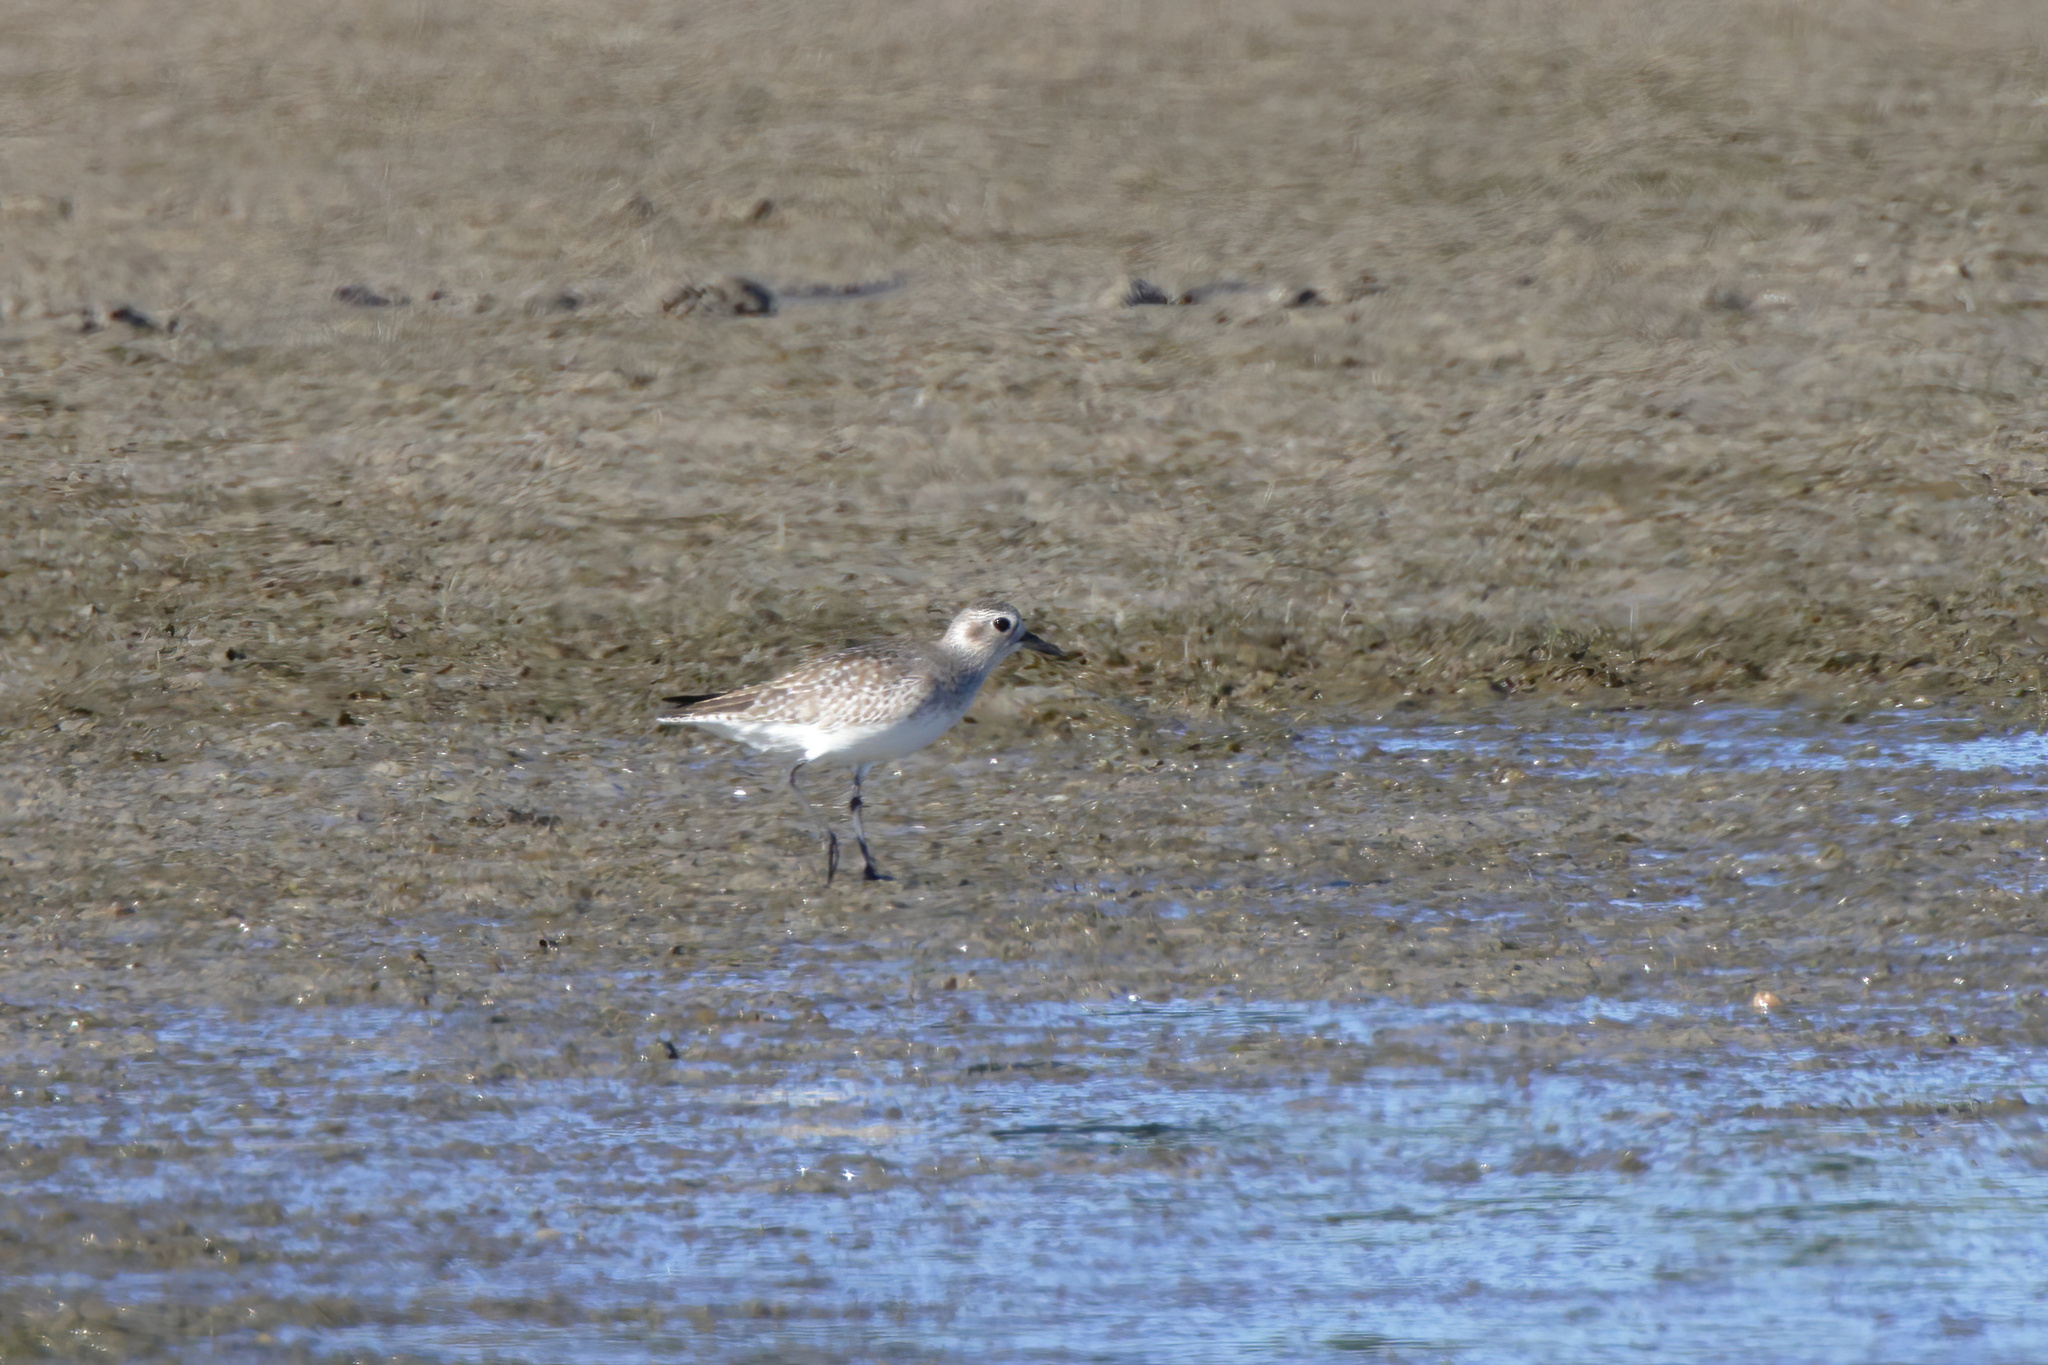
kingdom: Animalia
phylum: Chordata
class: Aves
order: Charadriiformes
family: Charadriidae
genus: Pluvialis
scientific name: Pluvialis squatarola
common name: Grey plover
